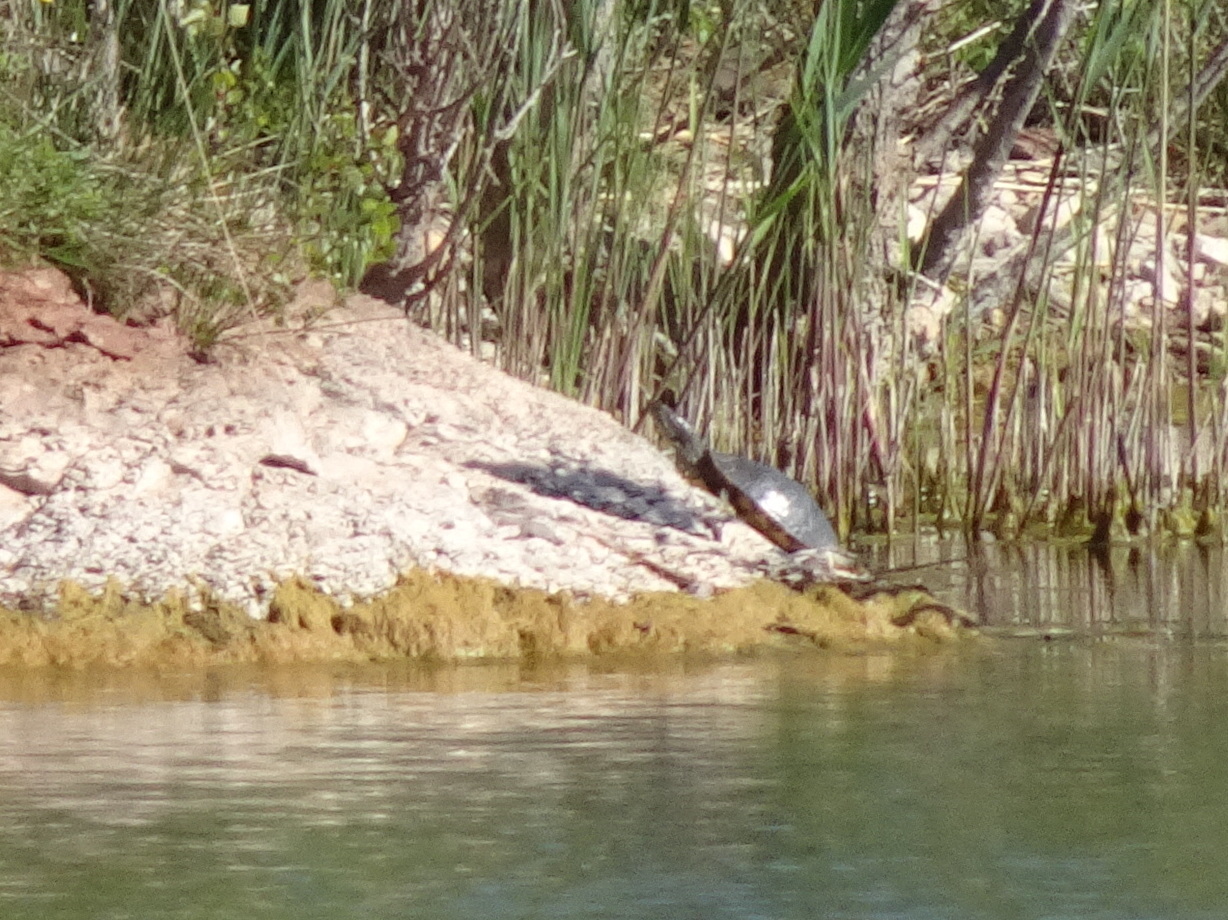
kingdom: Animalia
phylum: Chordata
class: Testudines
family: Emydidae
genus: Trachemys
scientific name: Trachemys scripta
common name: Slider
